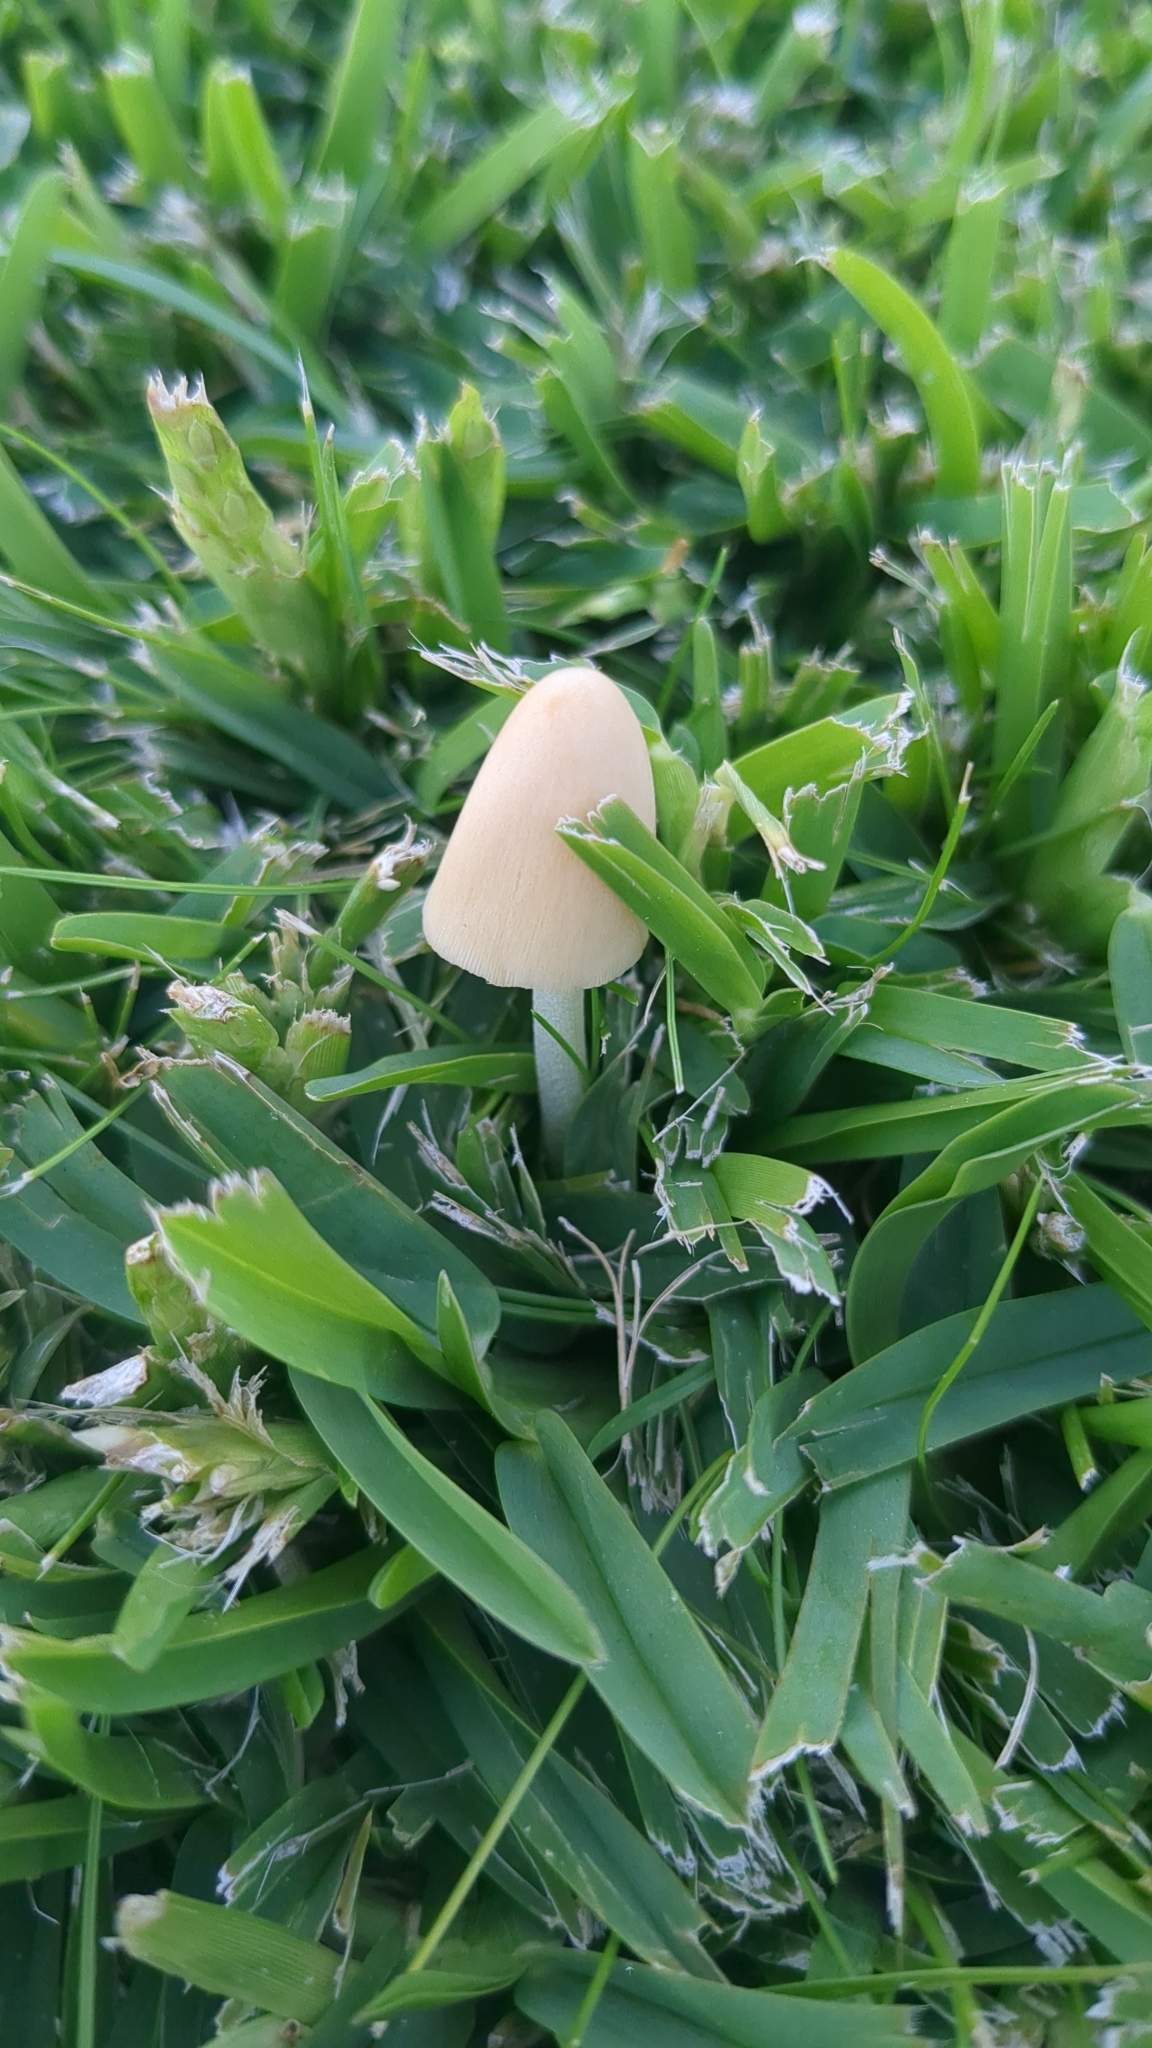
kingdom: Fungi
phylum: Basidiomycota
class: Agaricomycetes
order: Agaricales
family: Bolbitiaceae
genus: Conocybe
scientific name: Conocybe apala
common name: Milky conecap
